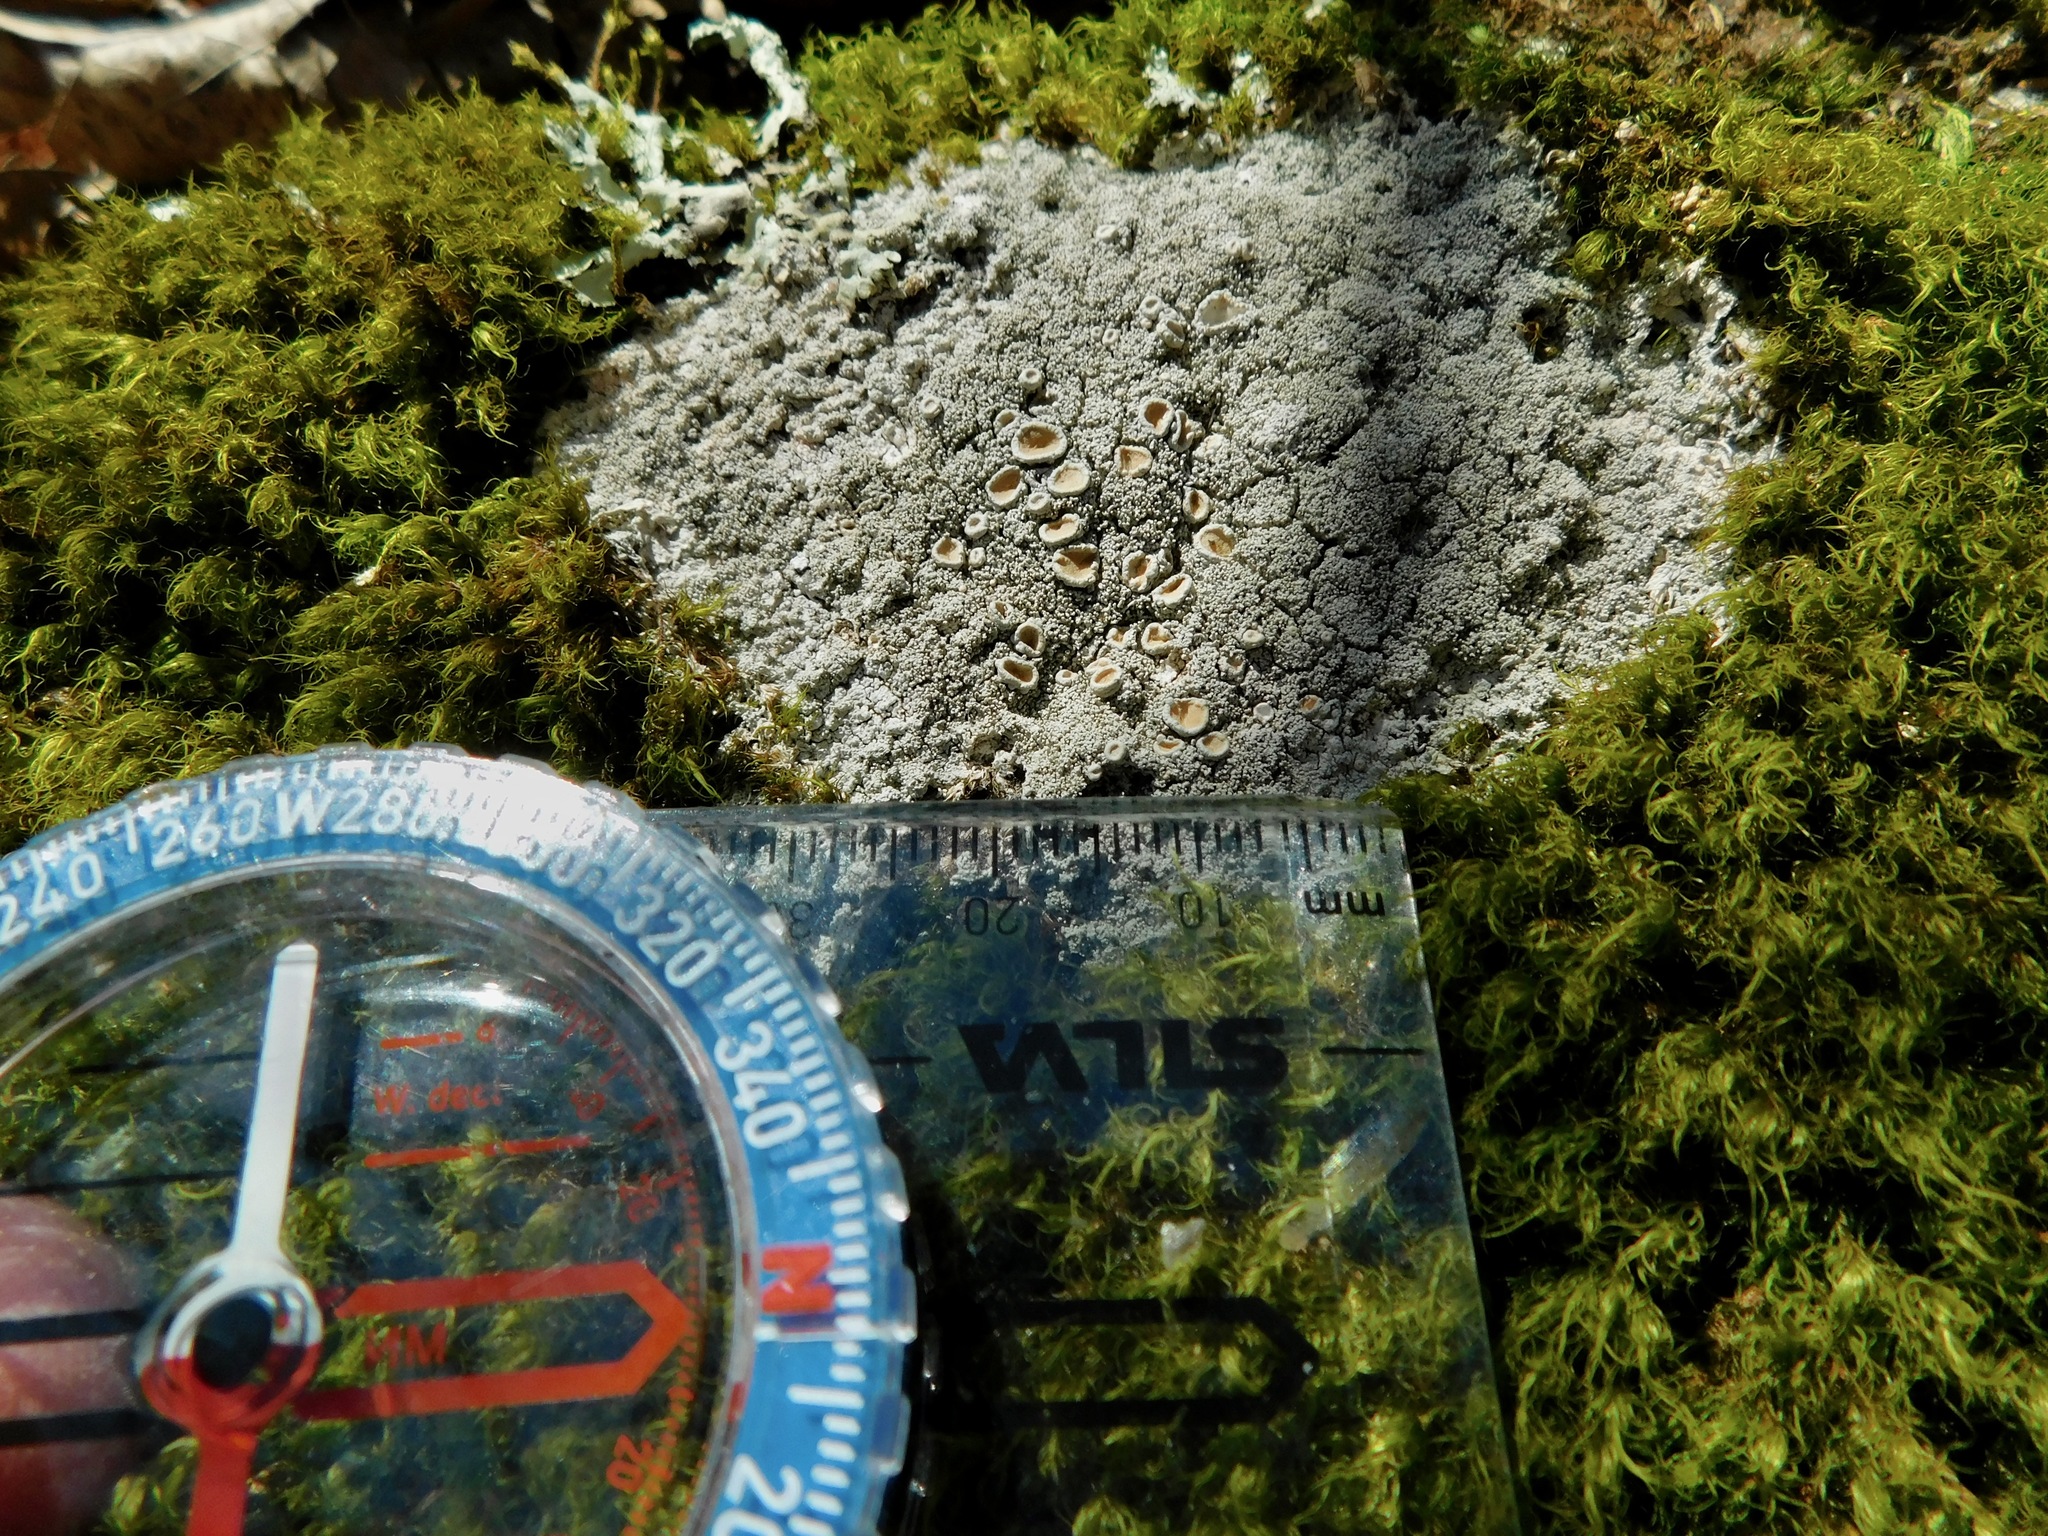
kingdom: Fungi
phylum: Ascomycota
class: Lecanoromycetes
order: Pertusariales
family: Ochrolechiaceae
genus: Ochrolechia
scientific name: Ochrolechia yasudae
